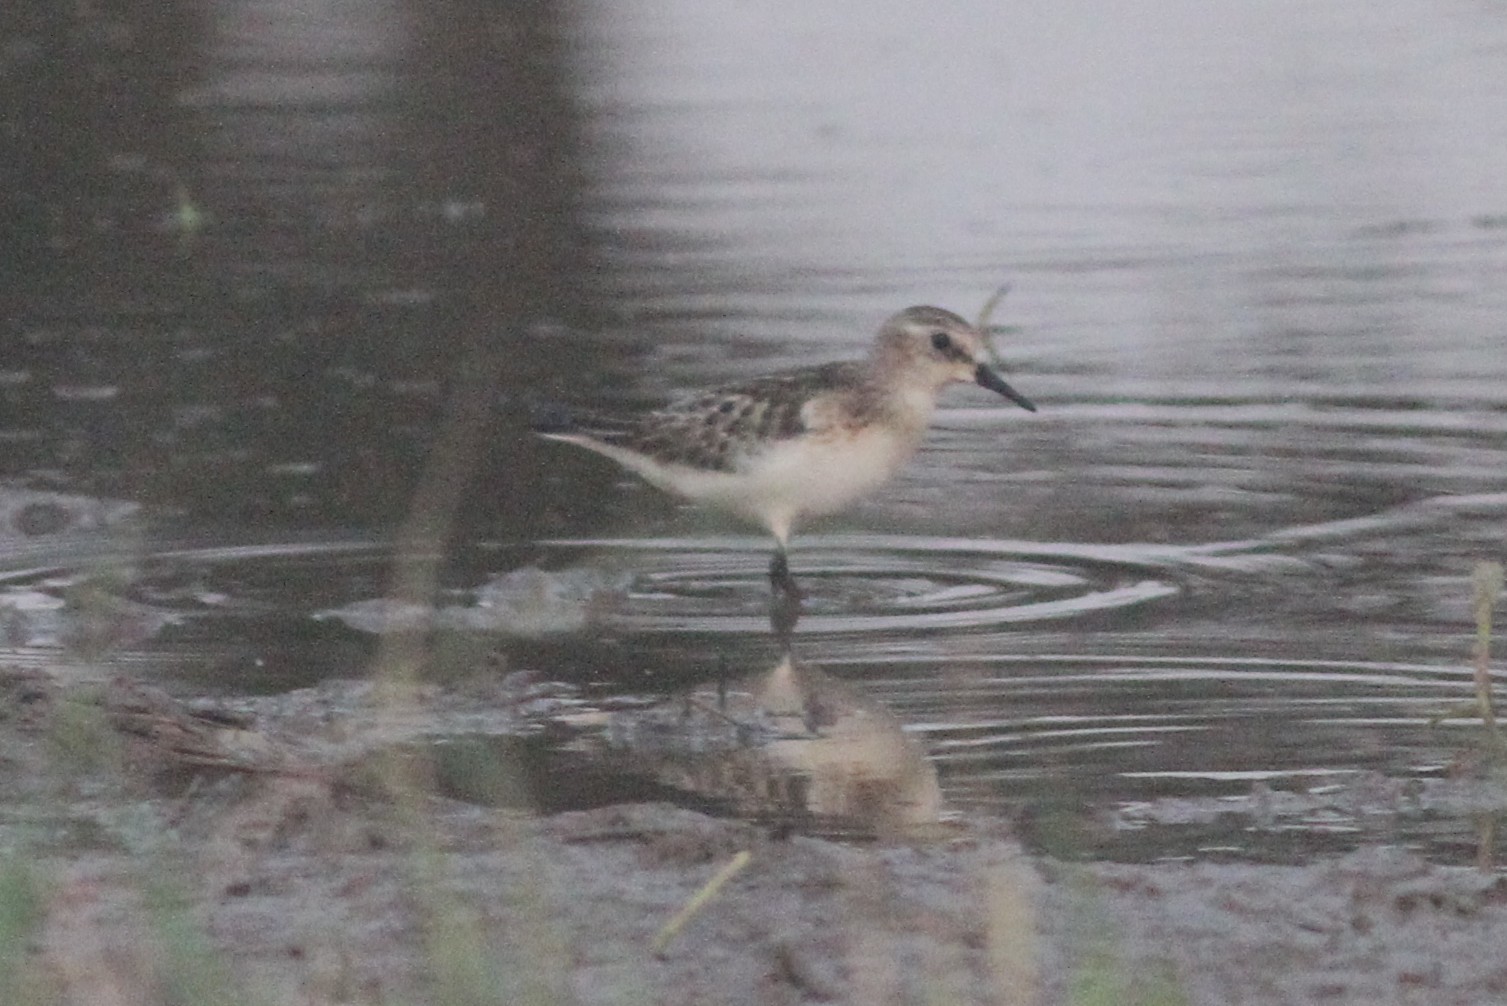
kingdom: Animalia
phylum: Chordata
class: Aves
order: Charadriiformes
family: Scolopacidae
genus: Calidris
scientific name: Calidris minuta
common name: Little stint
